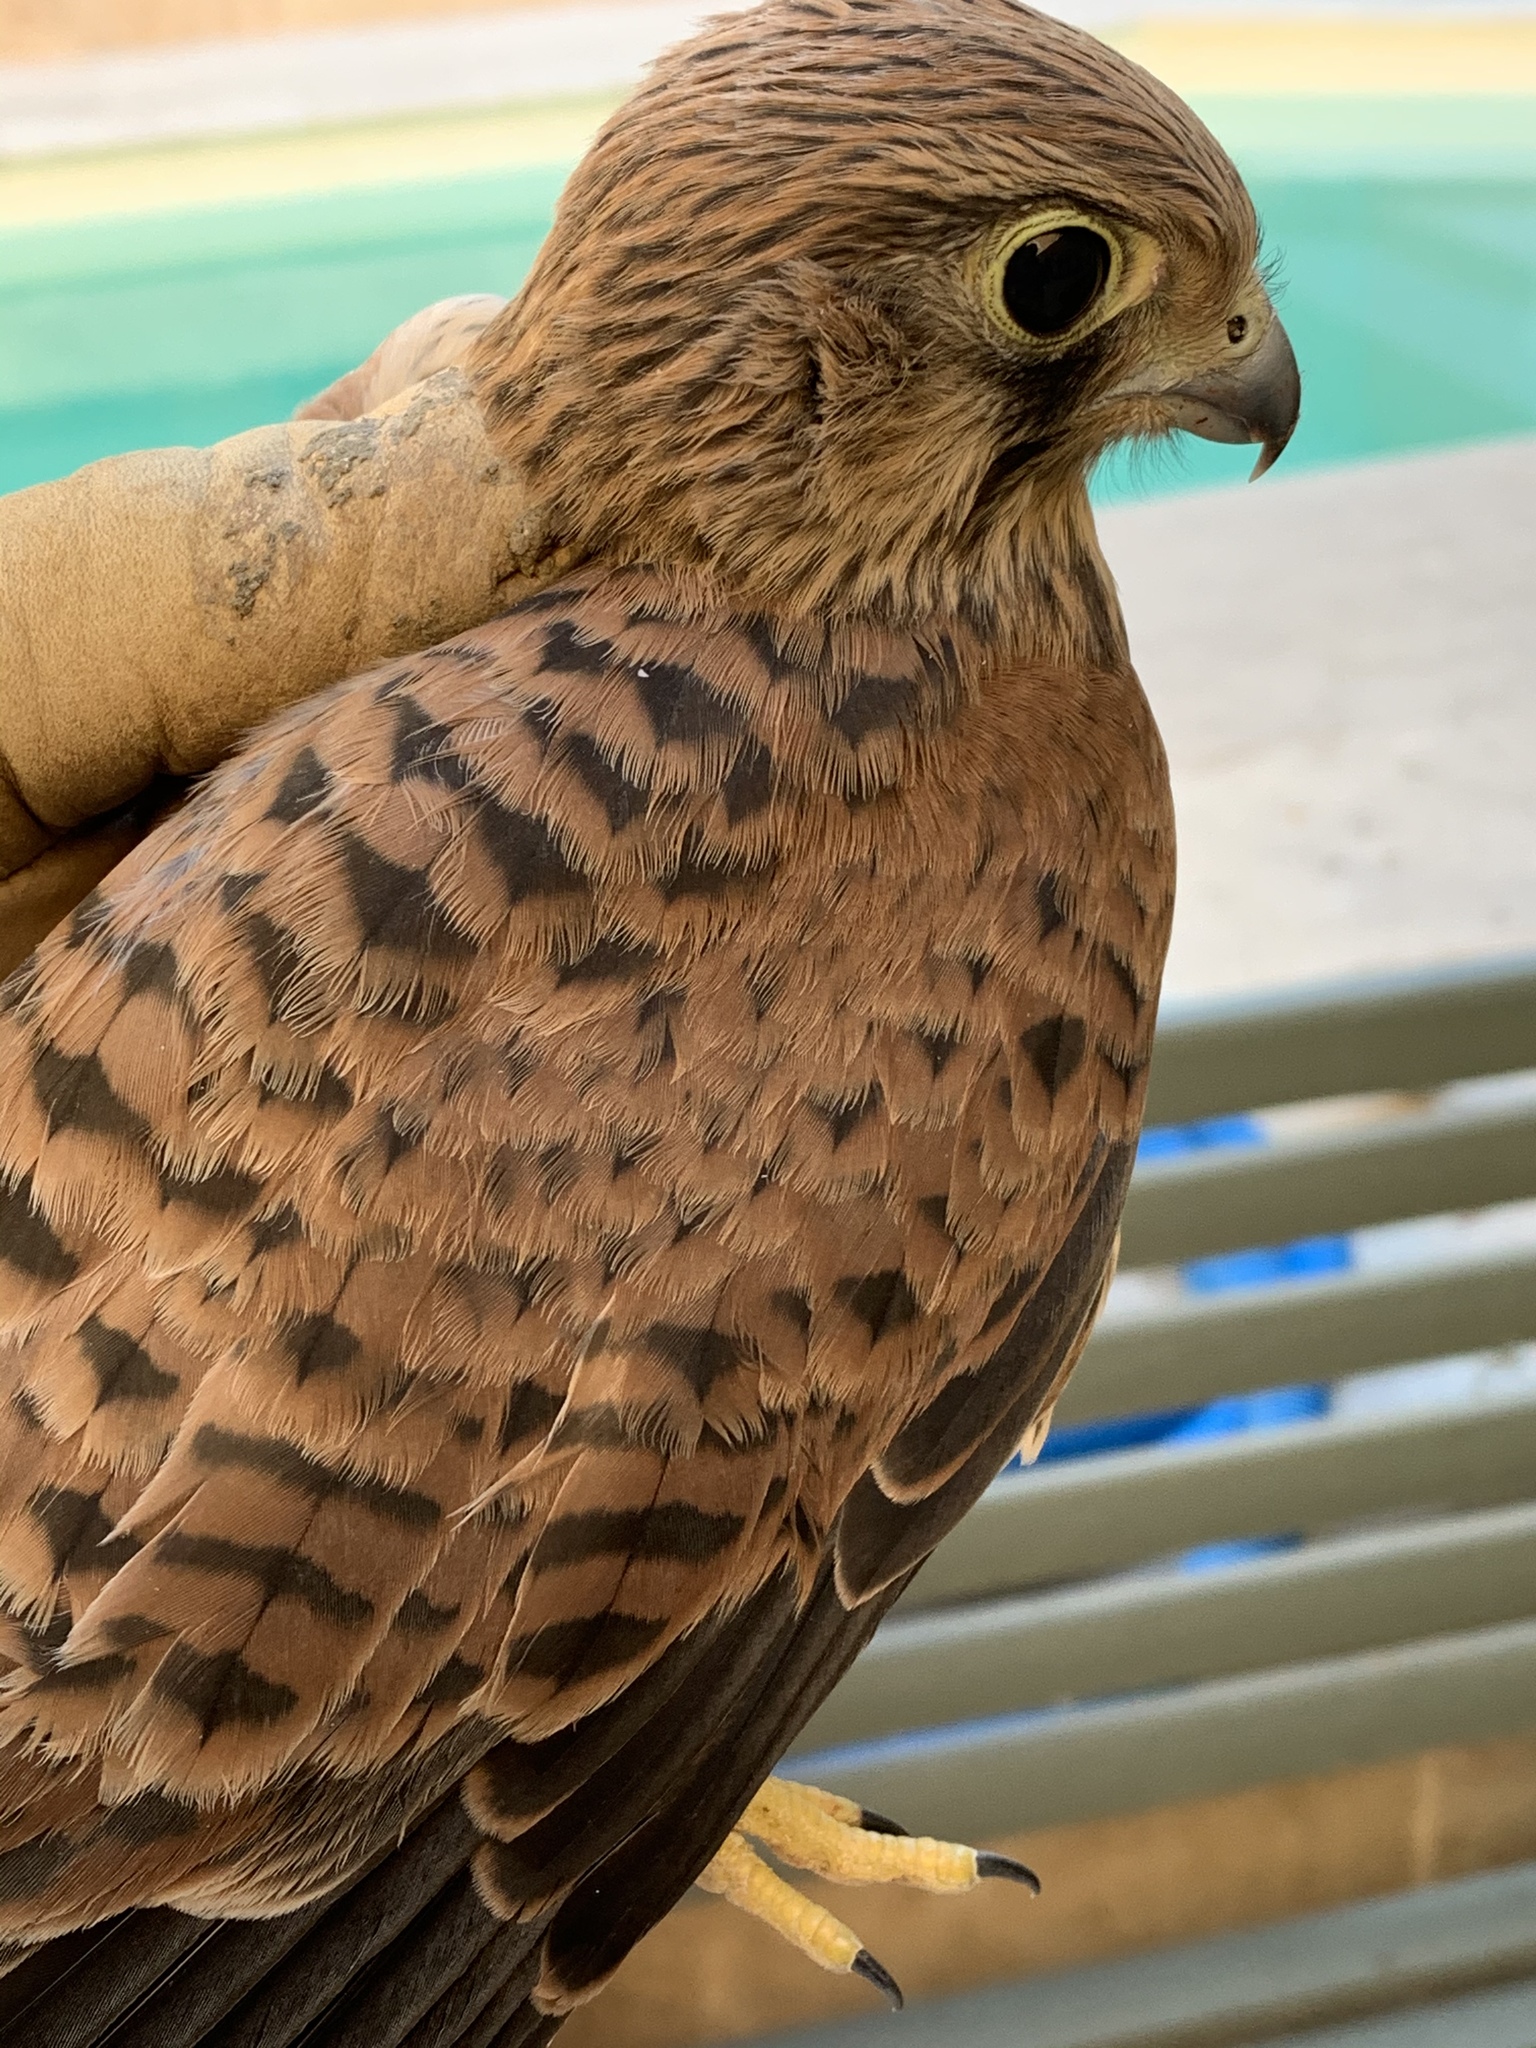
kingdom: Animalia
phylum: Chordata
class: Aves
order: Falconiformes
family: Falconidae
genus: Falco
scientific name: Falco tinnunculus
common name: Common kestrel
